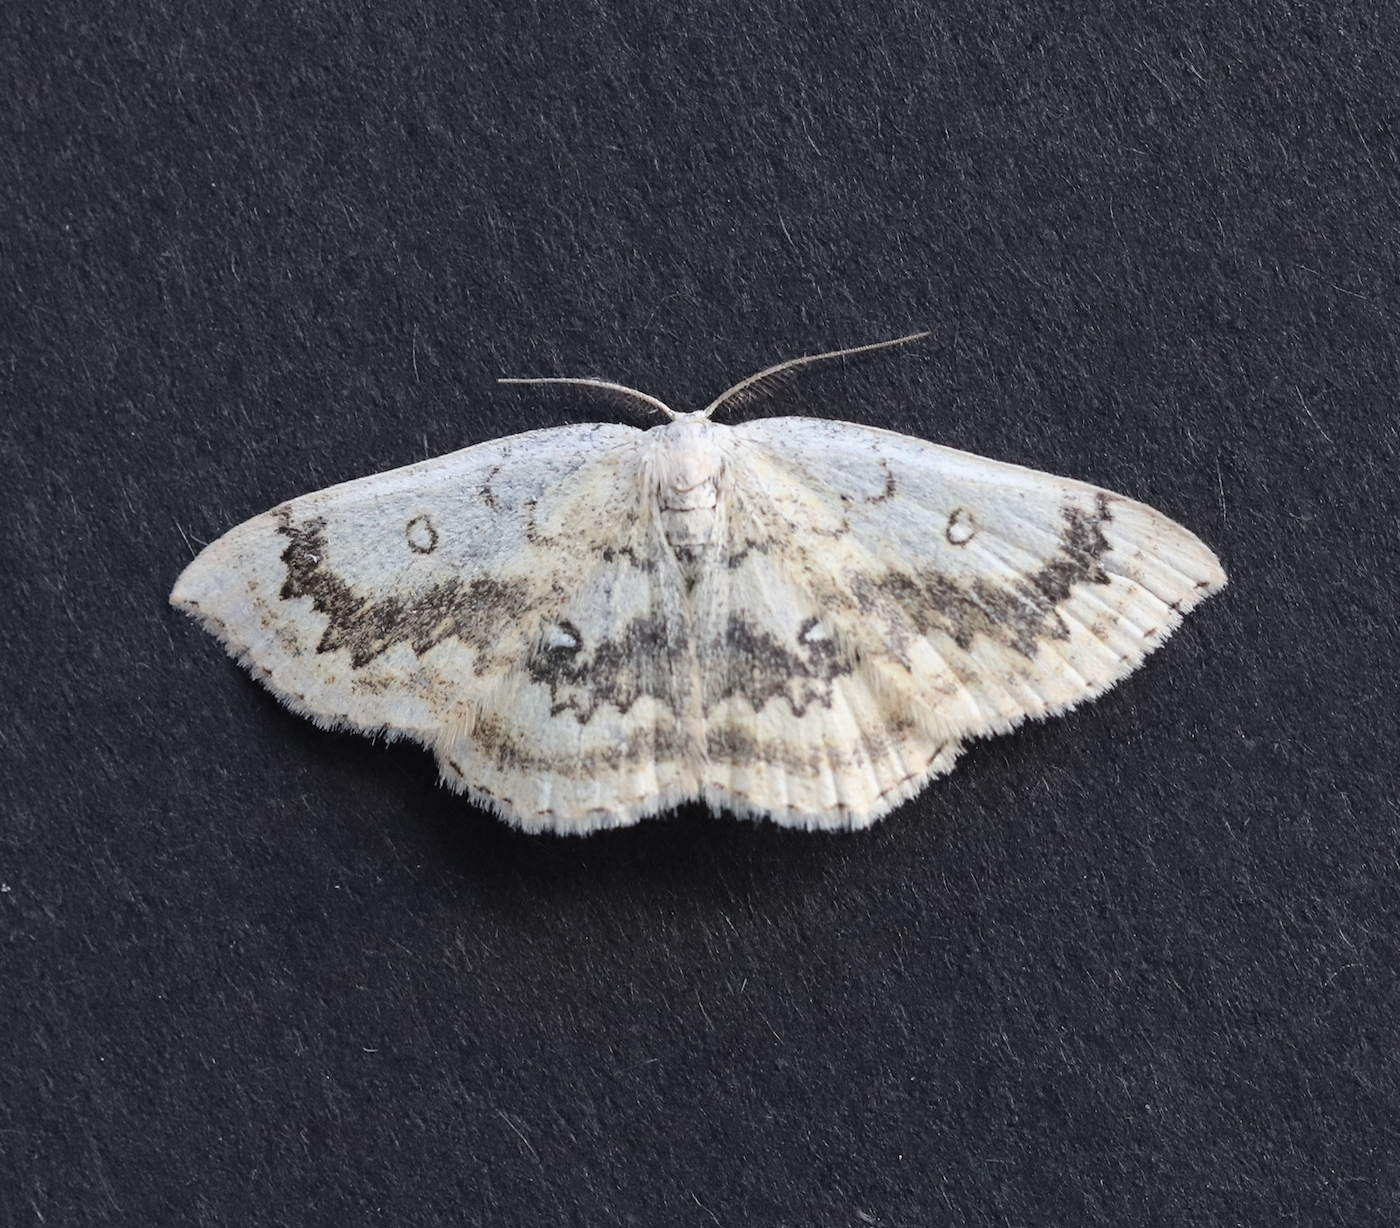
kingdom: Animalia
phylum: Arthropoda
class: Insecta
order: Lepidoptera
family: Geometridae
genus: Cyclophora
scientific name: Cyclophora annularia
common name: Mocha
